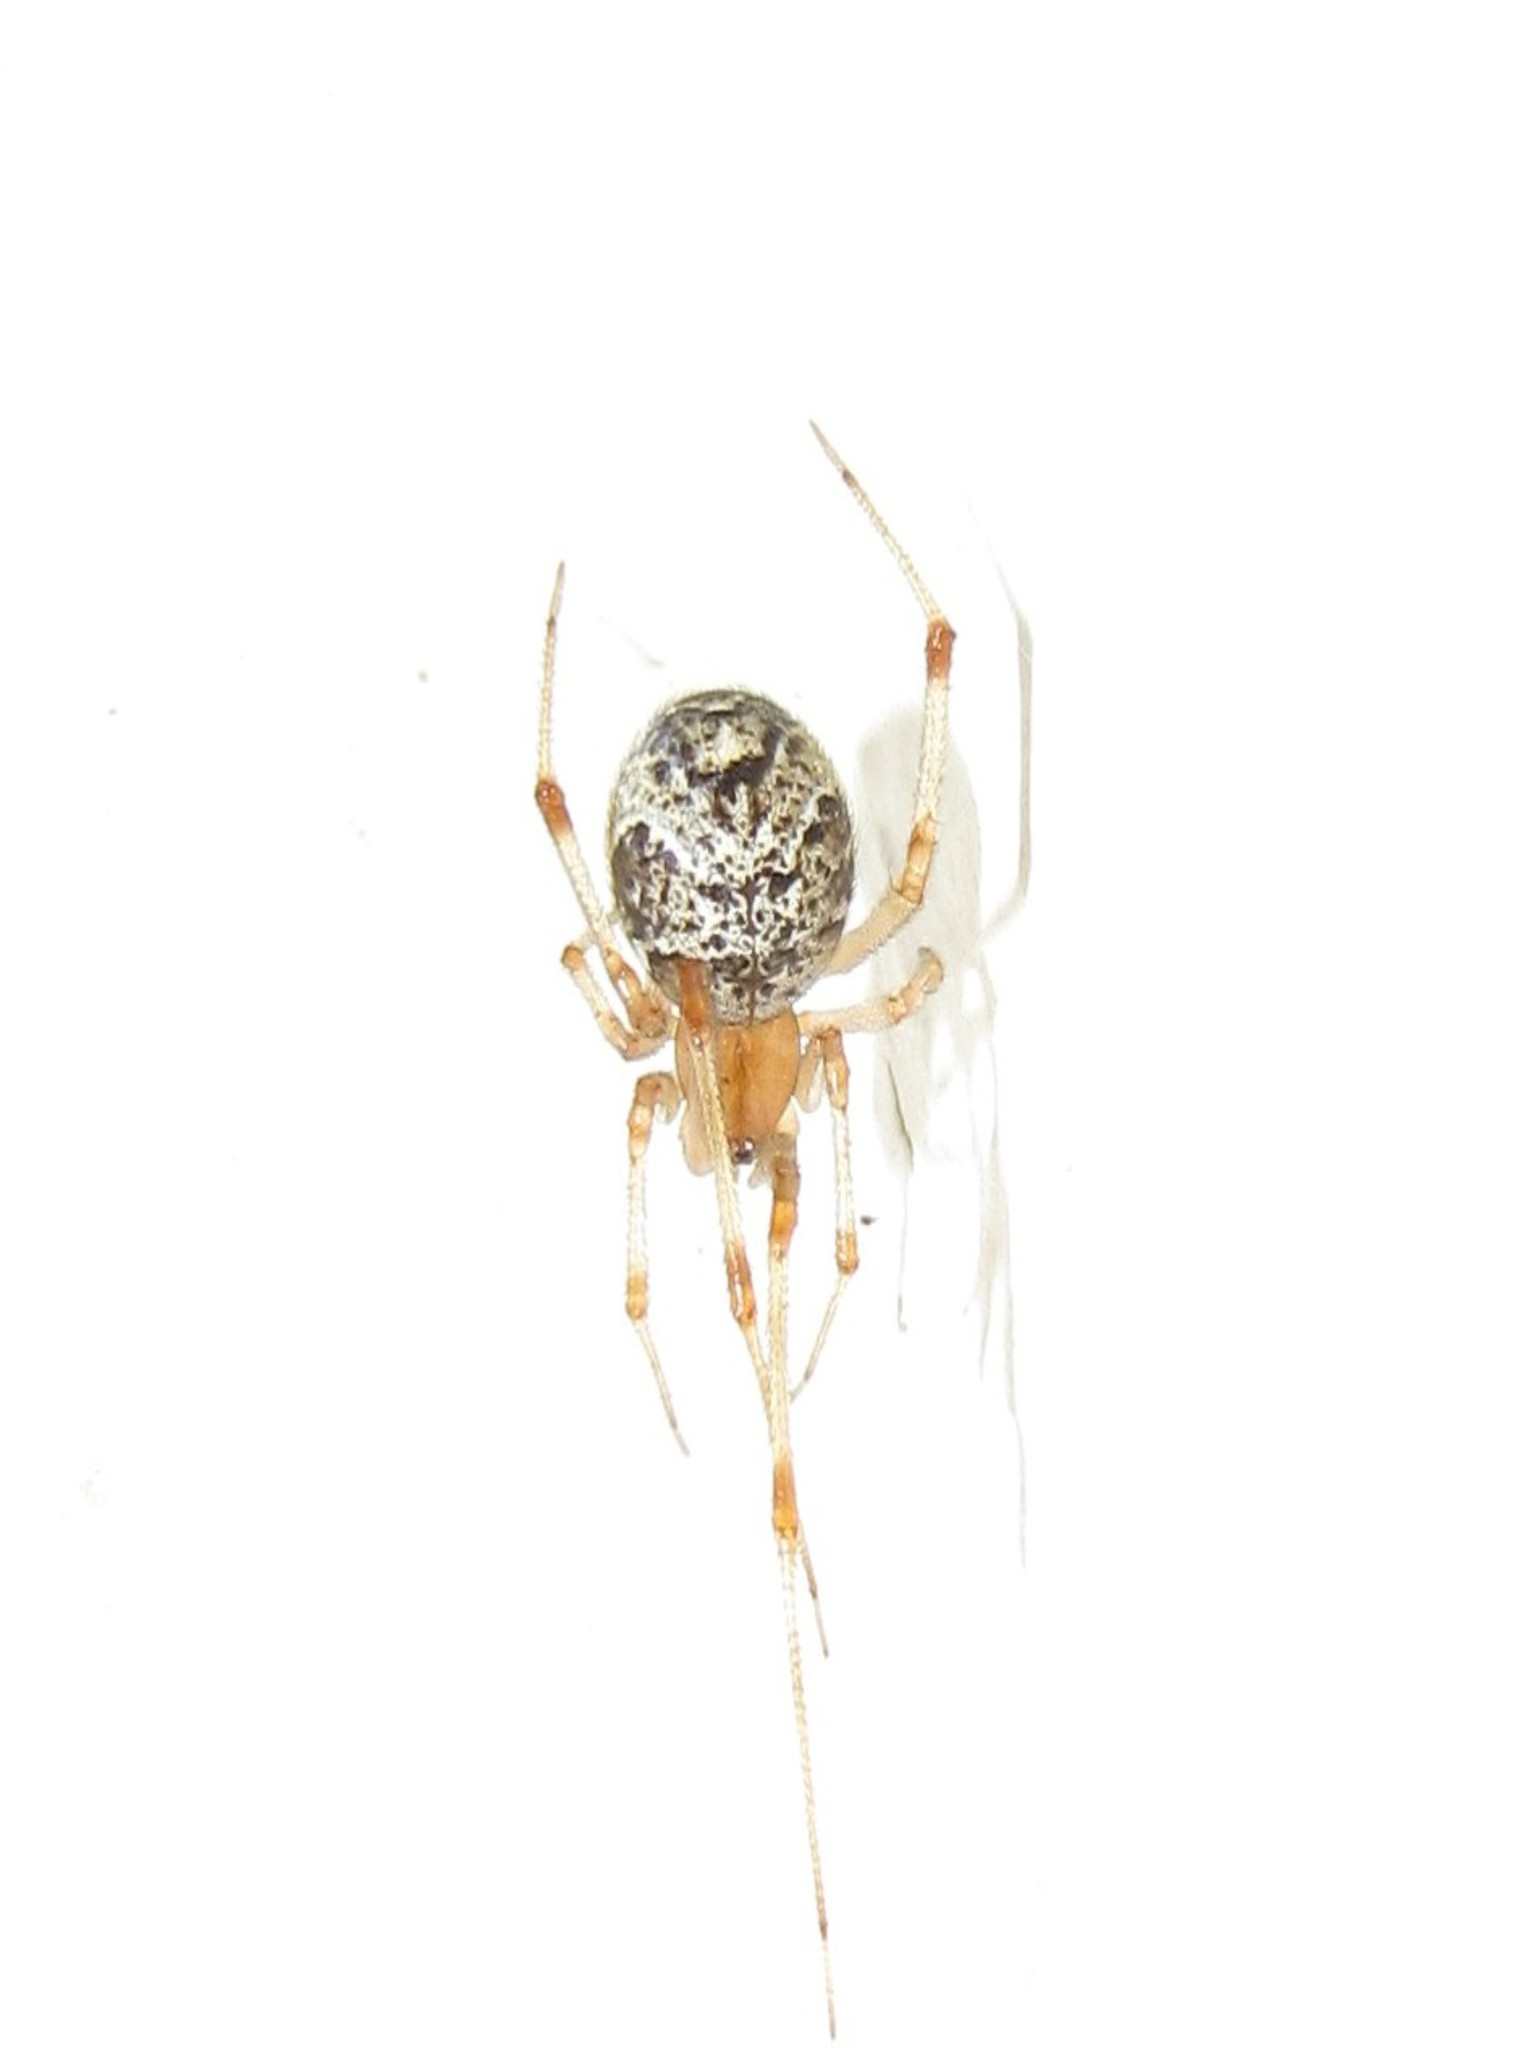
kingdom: Animalia
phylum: Arthropoda
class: Arachnida
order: Araneae
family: Theridiidae
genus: Parasteatoda
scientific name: Parasteatoda tepidariorum
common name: Common house spider
